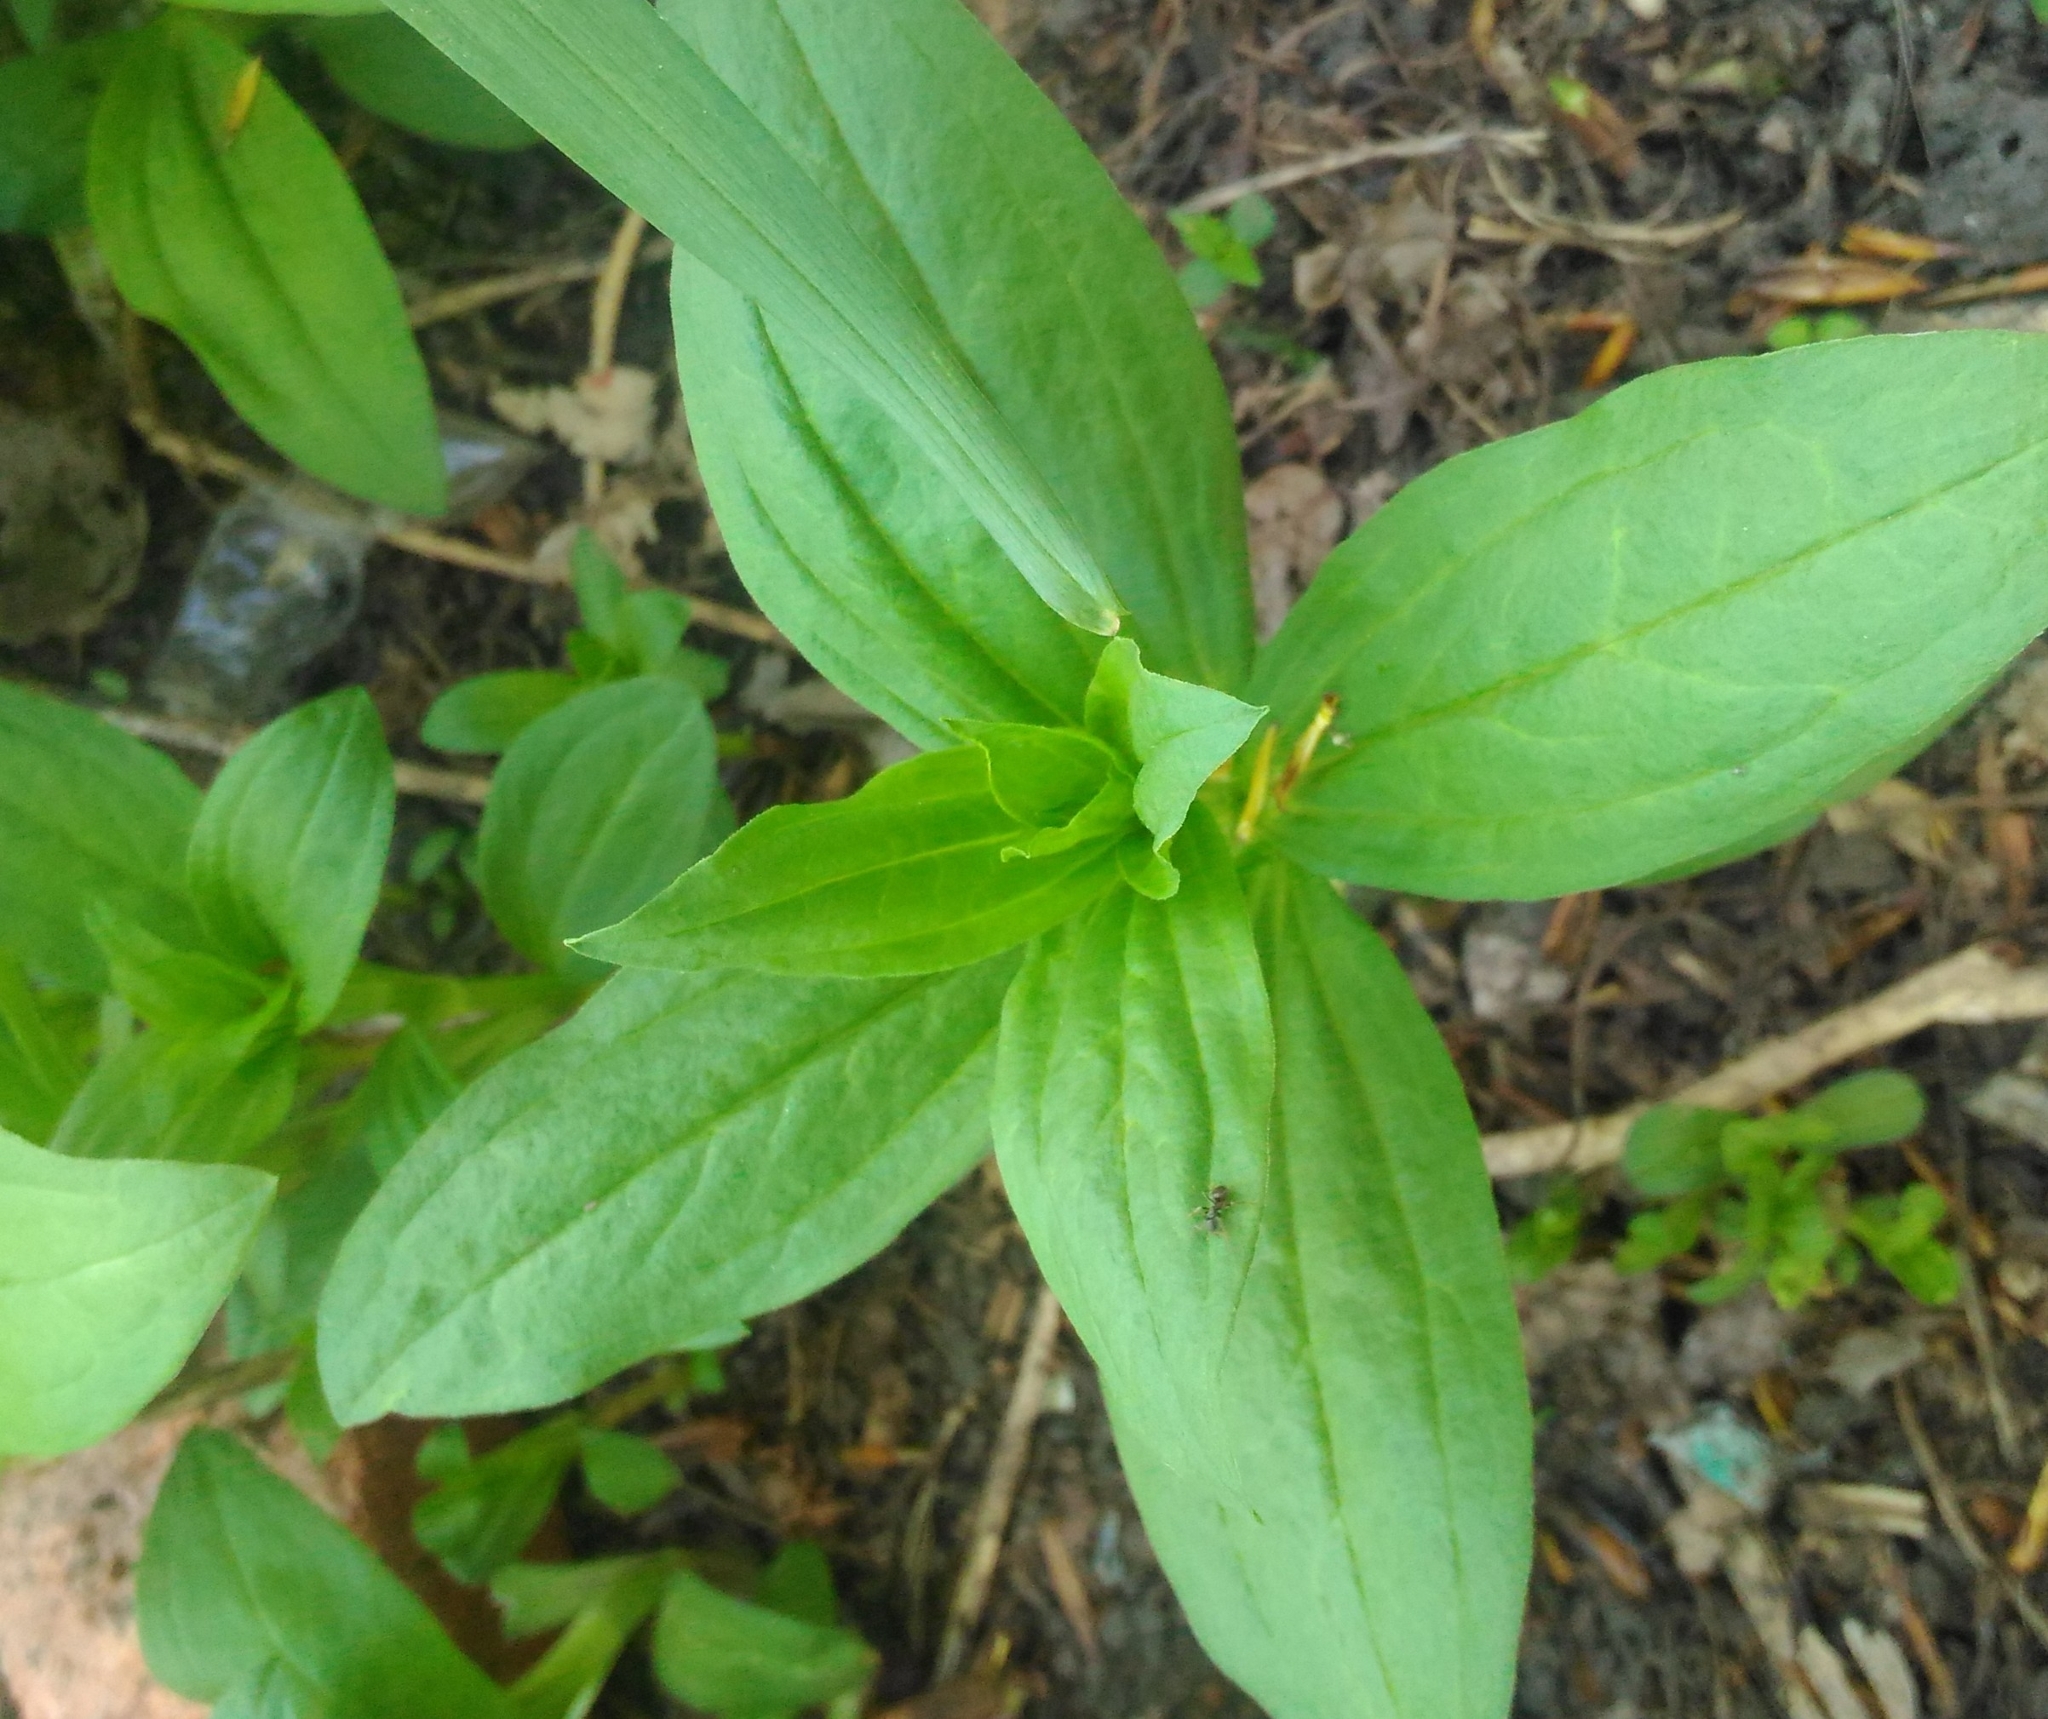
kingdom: Plantae
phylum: Tracheophyta
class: Magnoliopsida
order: Caryophyllales
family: Caryophyllaceae
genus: Saponaria
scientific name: Saponaria officinalis
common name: Soapwort
